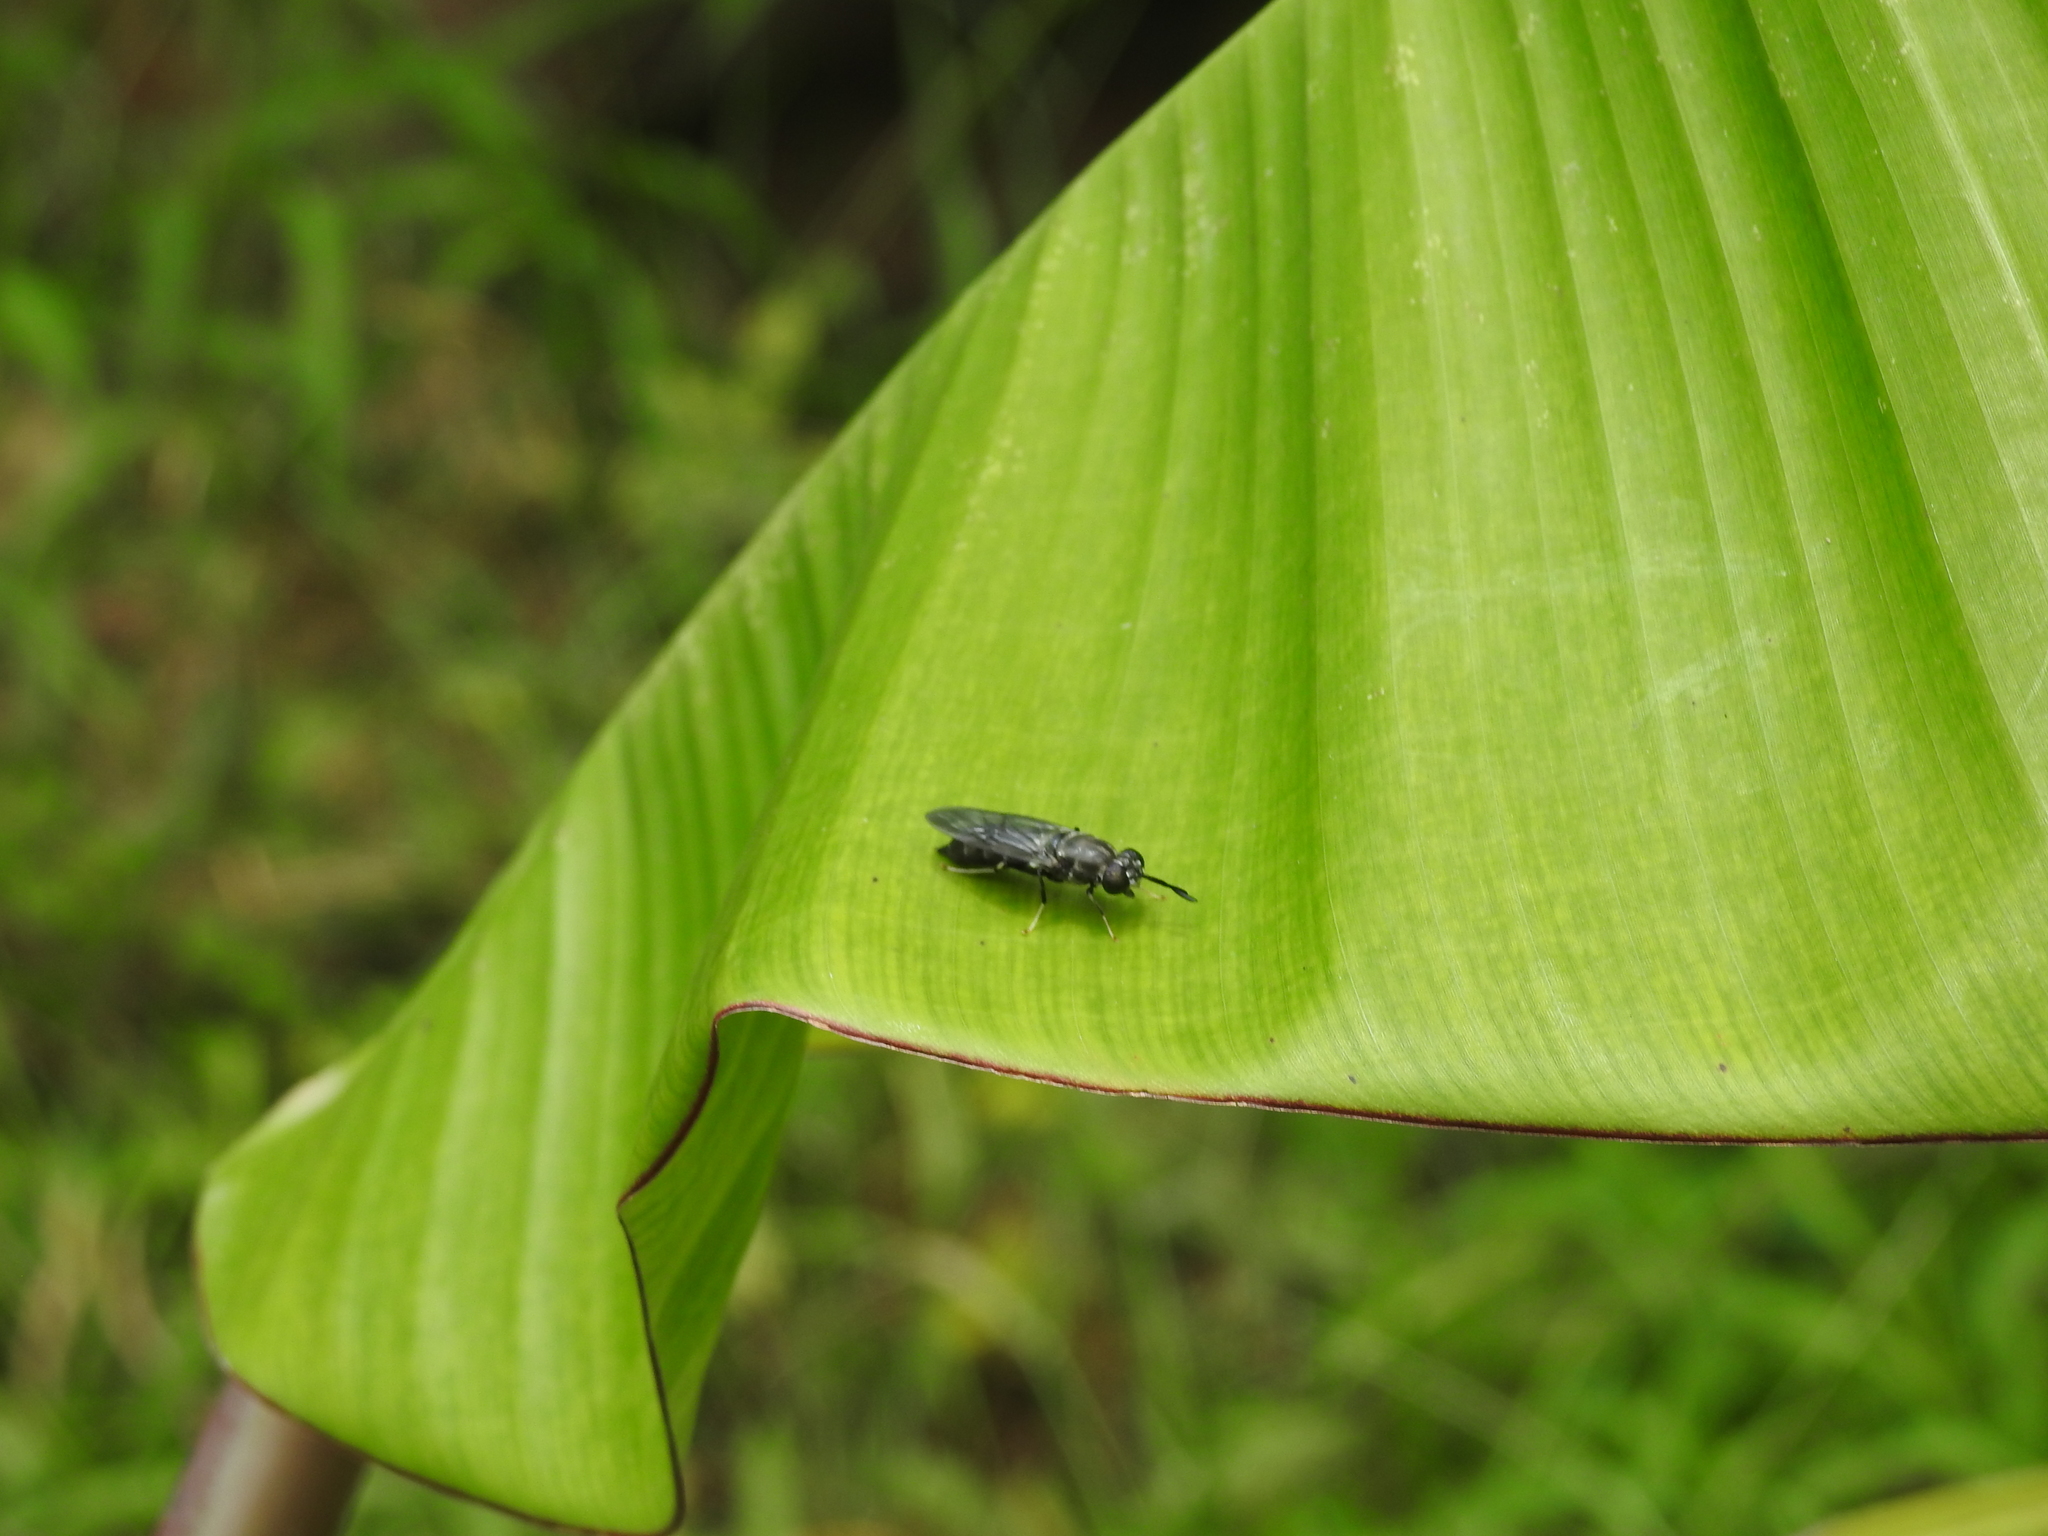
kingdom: Animalia
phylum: Arthropoda
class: Insecta
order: Diptera
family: Stratiomyidae
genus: Hermetia
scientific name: Hermetia illucens
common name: Black soldier fly
